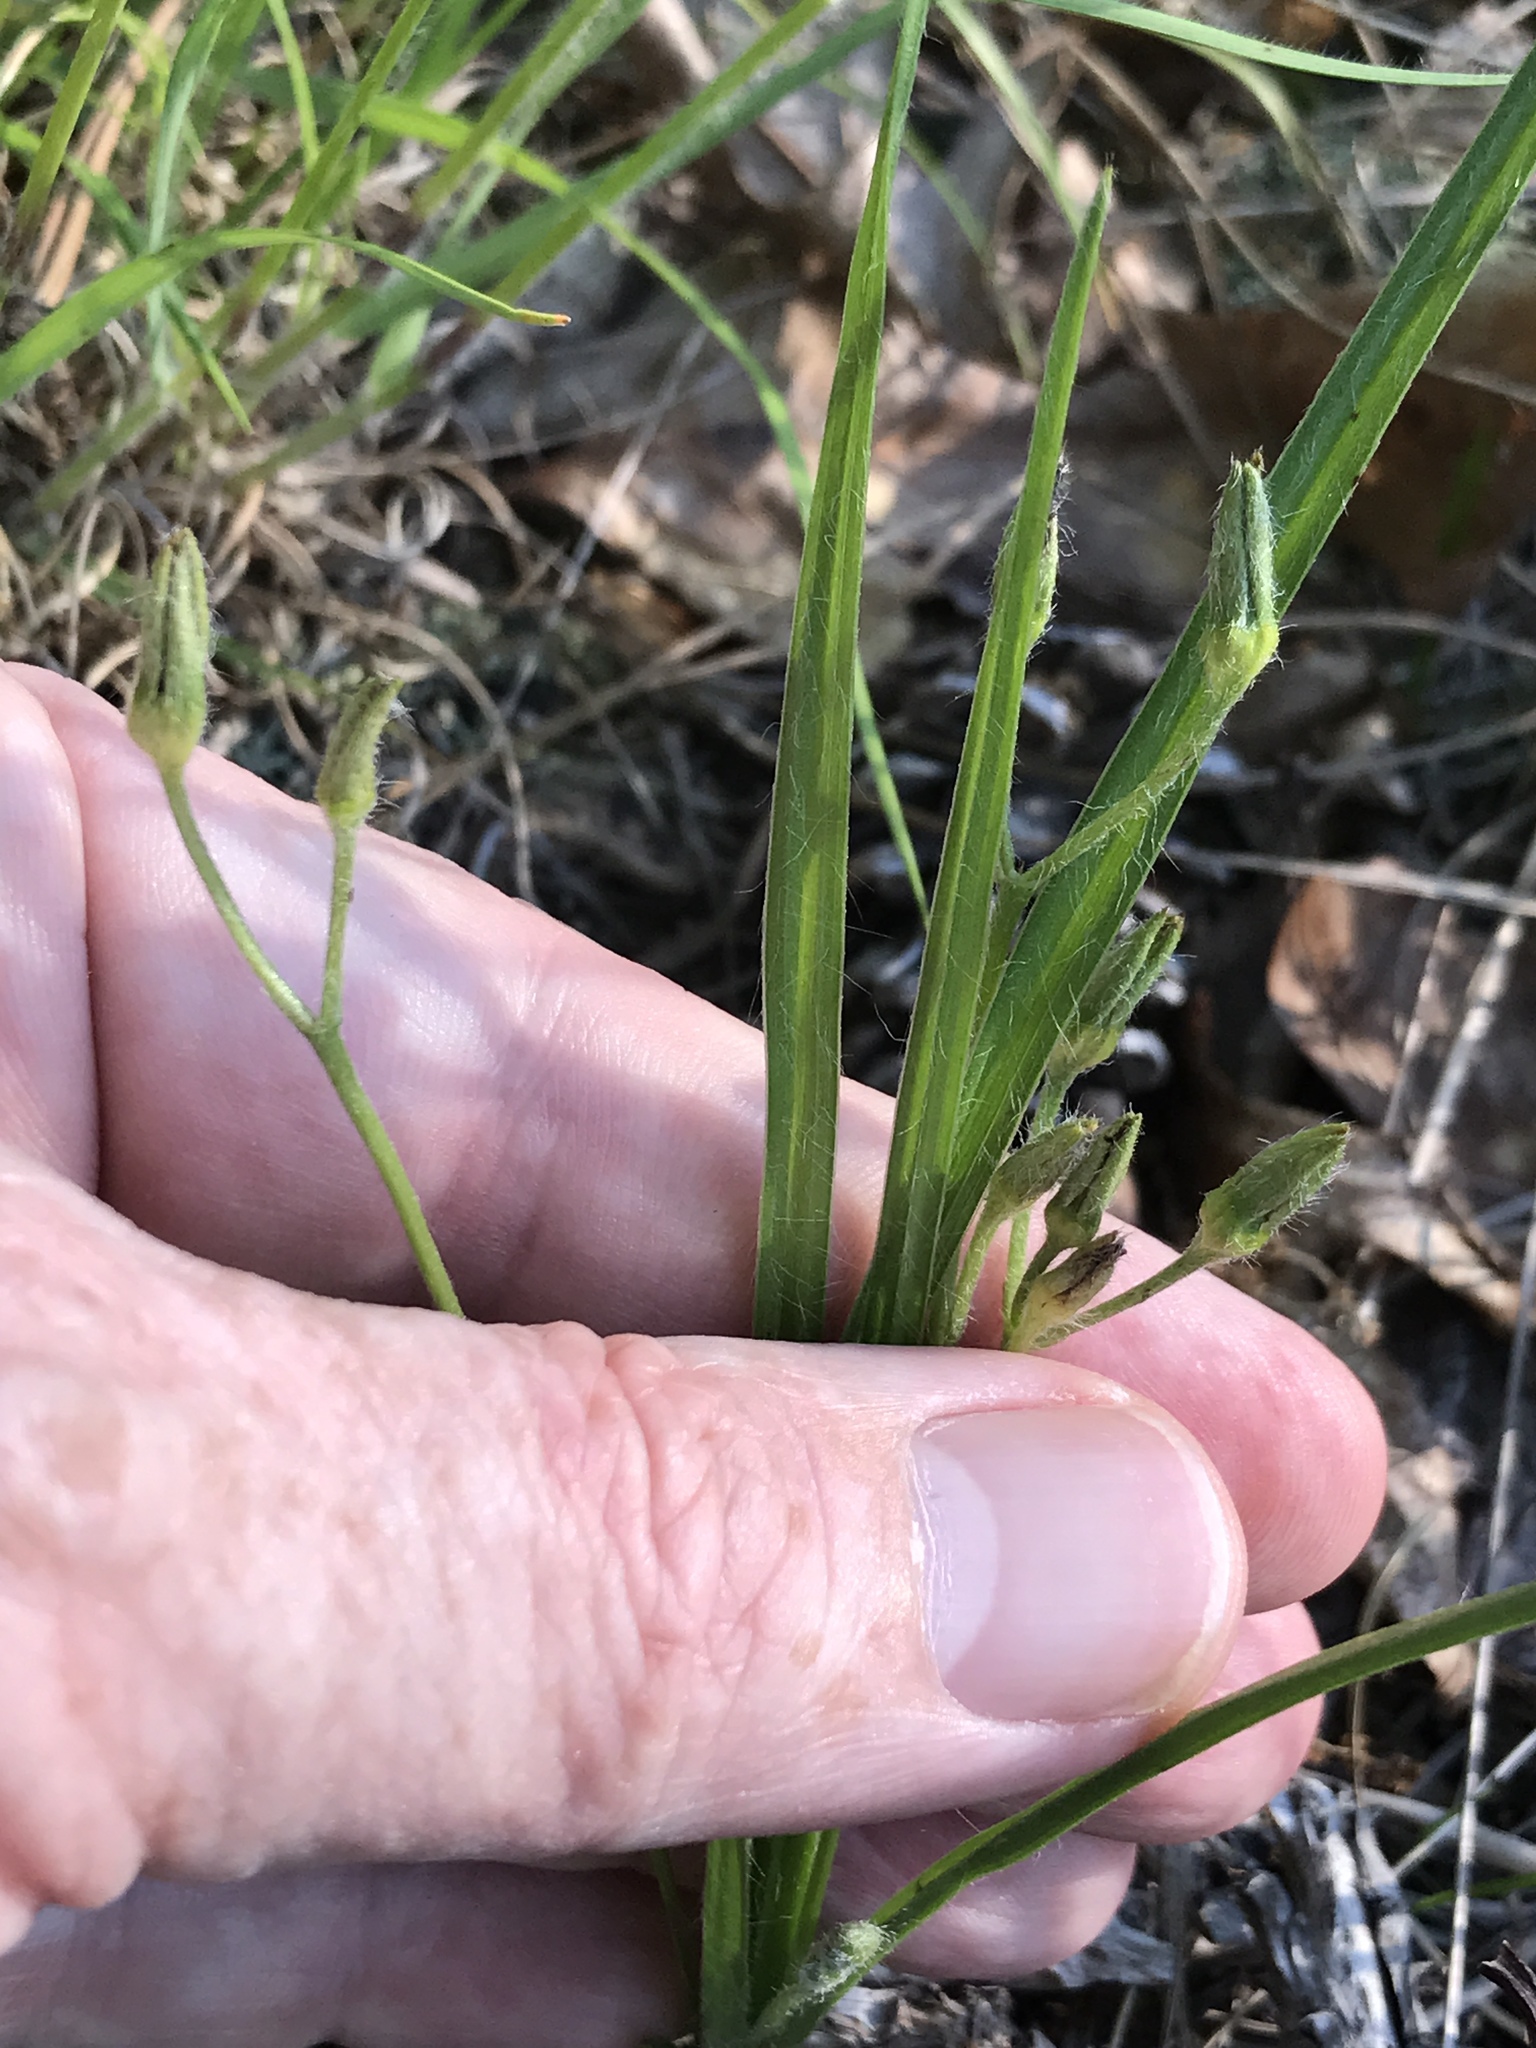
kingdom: Plantae
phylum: Tracheophyta
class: Liliopsida
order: Asparagales
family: Hypoxidaceae
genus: Hypoxis
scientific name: Hypoxis hirsuta
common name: Common goldstar
